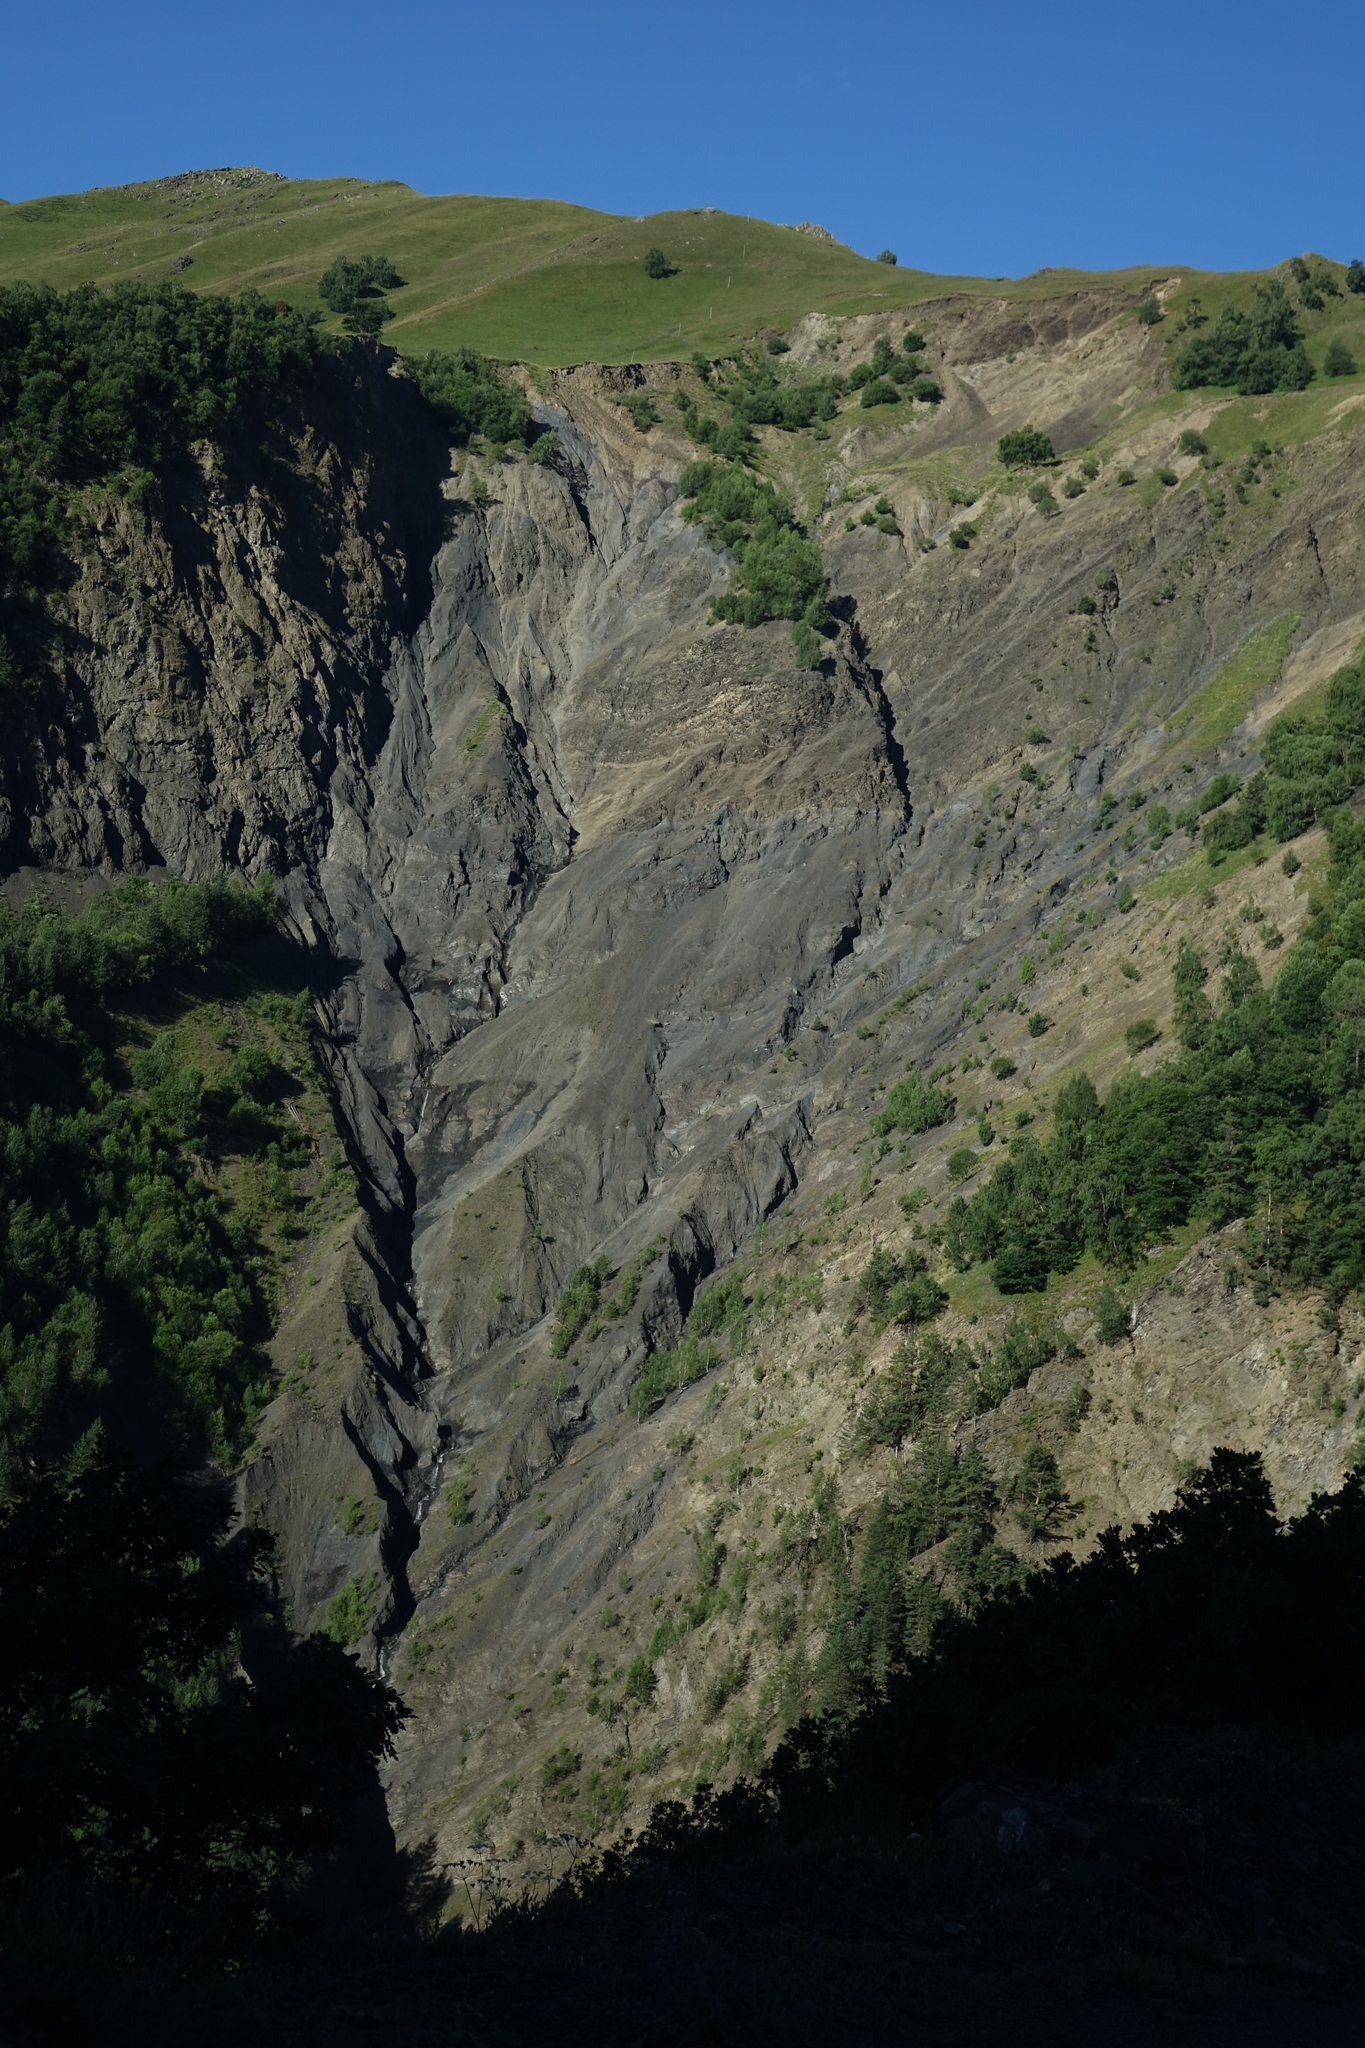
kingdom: Plantae
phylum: Tracheophyta
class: Pinopsida
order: Pinales
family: Pinaceae
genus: Pinus
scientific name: Pinus sylvestris
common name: Scots pine
